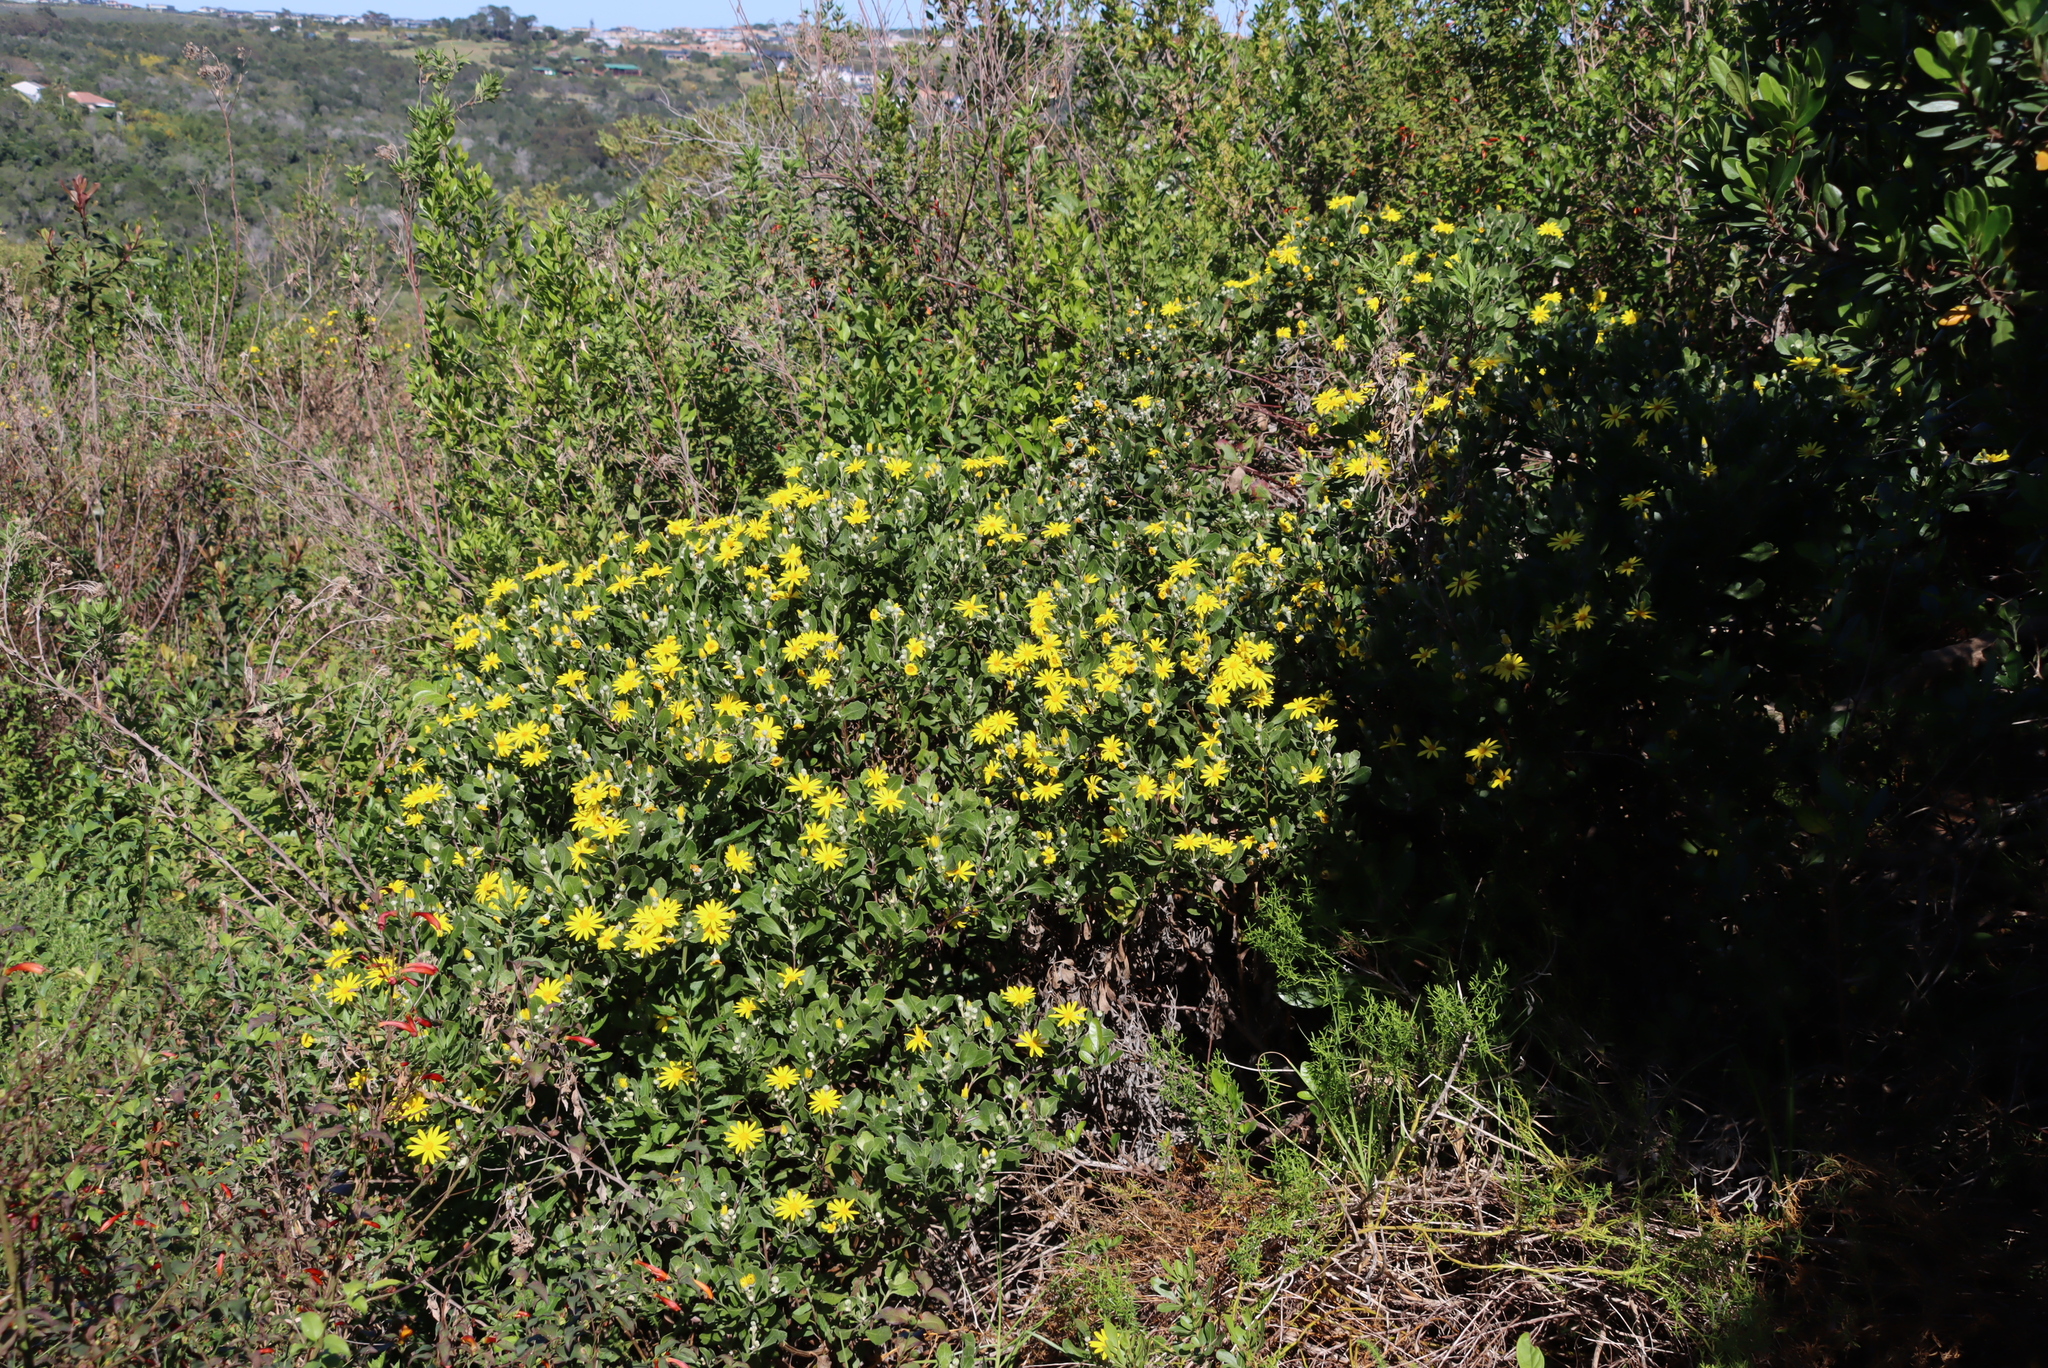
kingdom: Plantae
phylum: Tracheophyta
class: Magnoliopsida
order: Asterales
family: Asteraceae
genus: Osteospermum
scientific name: Osteospermum moniliferum
